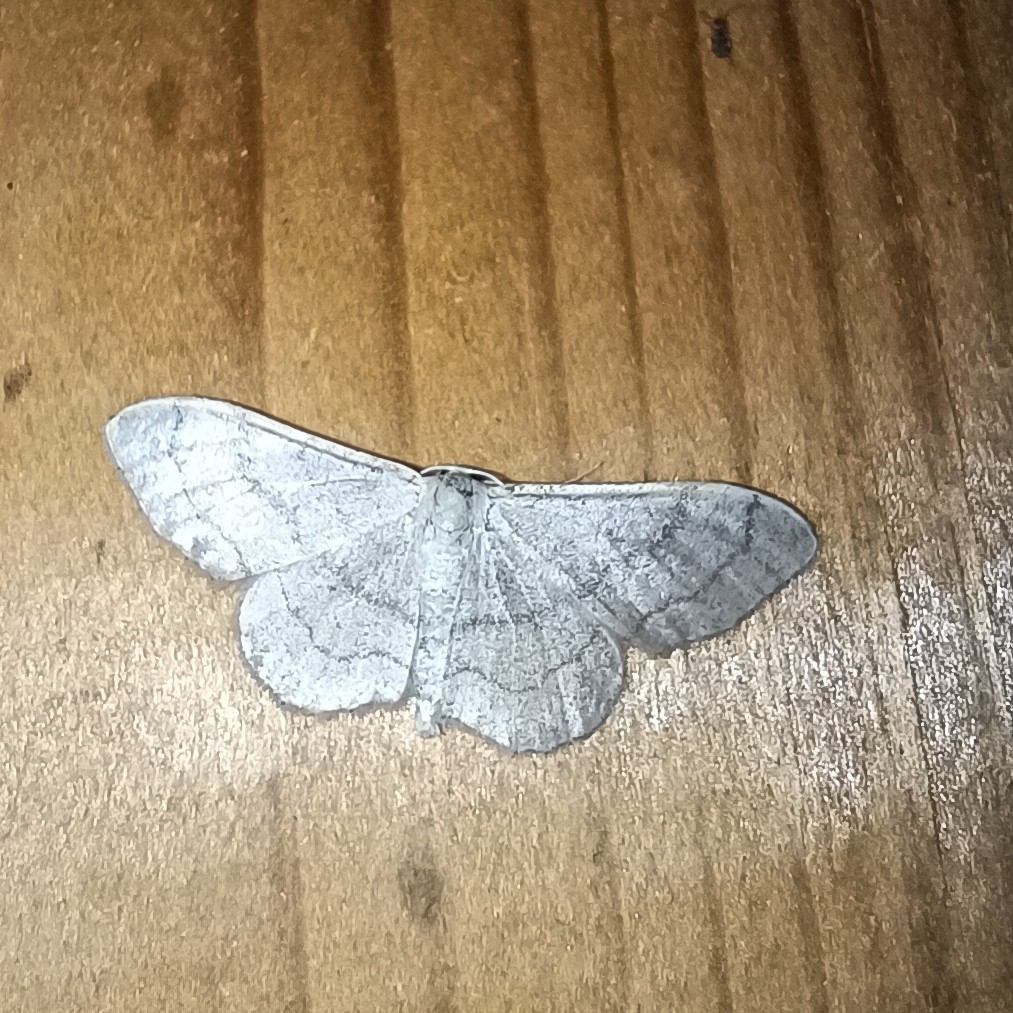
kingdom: Animalia
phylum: Arthropoda
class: Insecta
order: Lepidoptera
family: Geometridae
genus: Idaea
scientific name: Idaea aversata
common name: Riband wave
